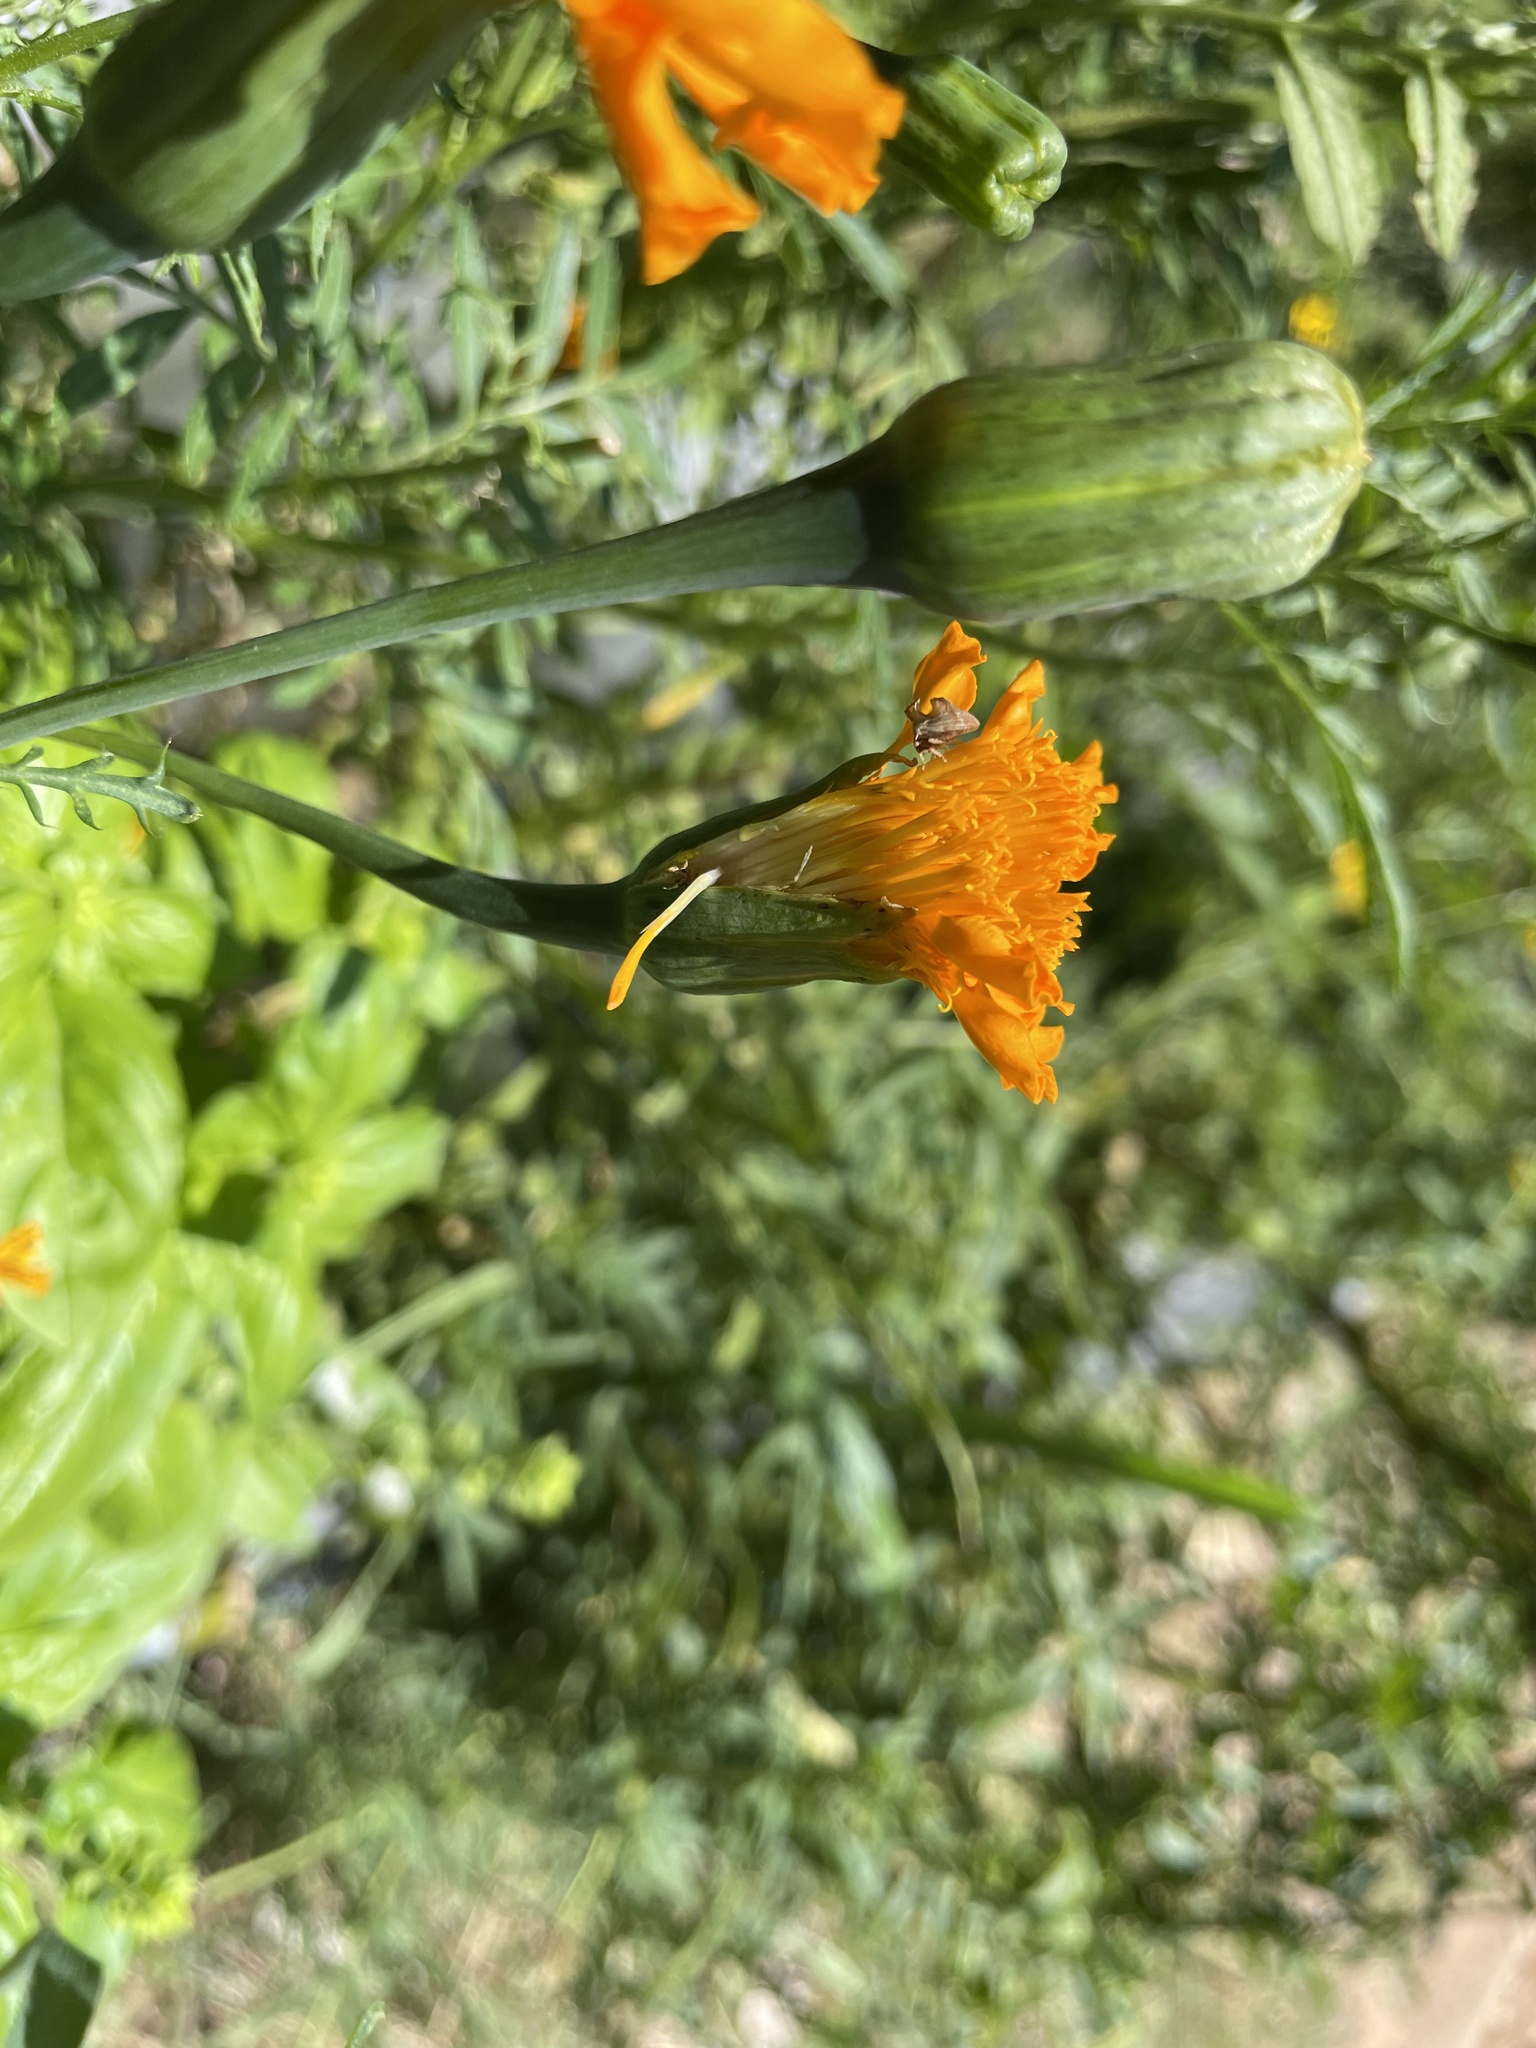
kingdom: Animalia
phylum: Arthropoda
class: Insecta
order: Hemiptera
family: Membracidae
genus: Entylia
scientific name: Entylia carinata
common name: Keeled treehopper
